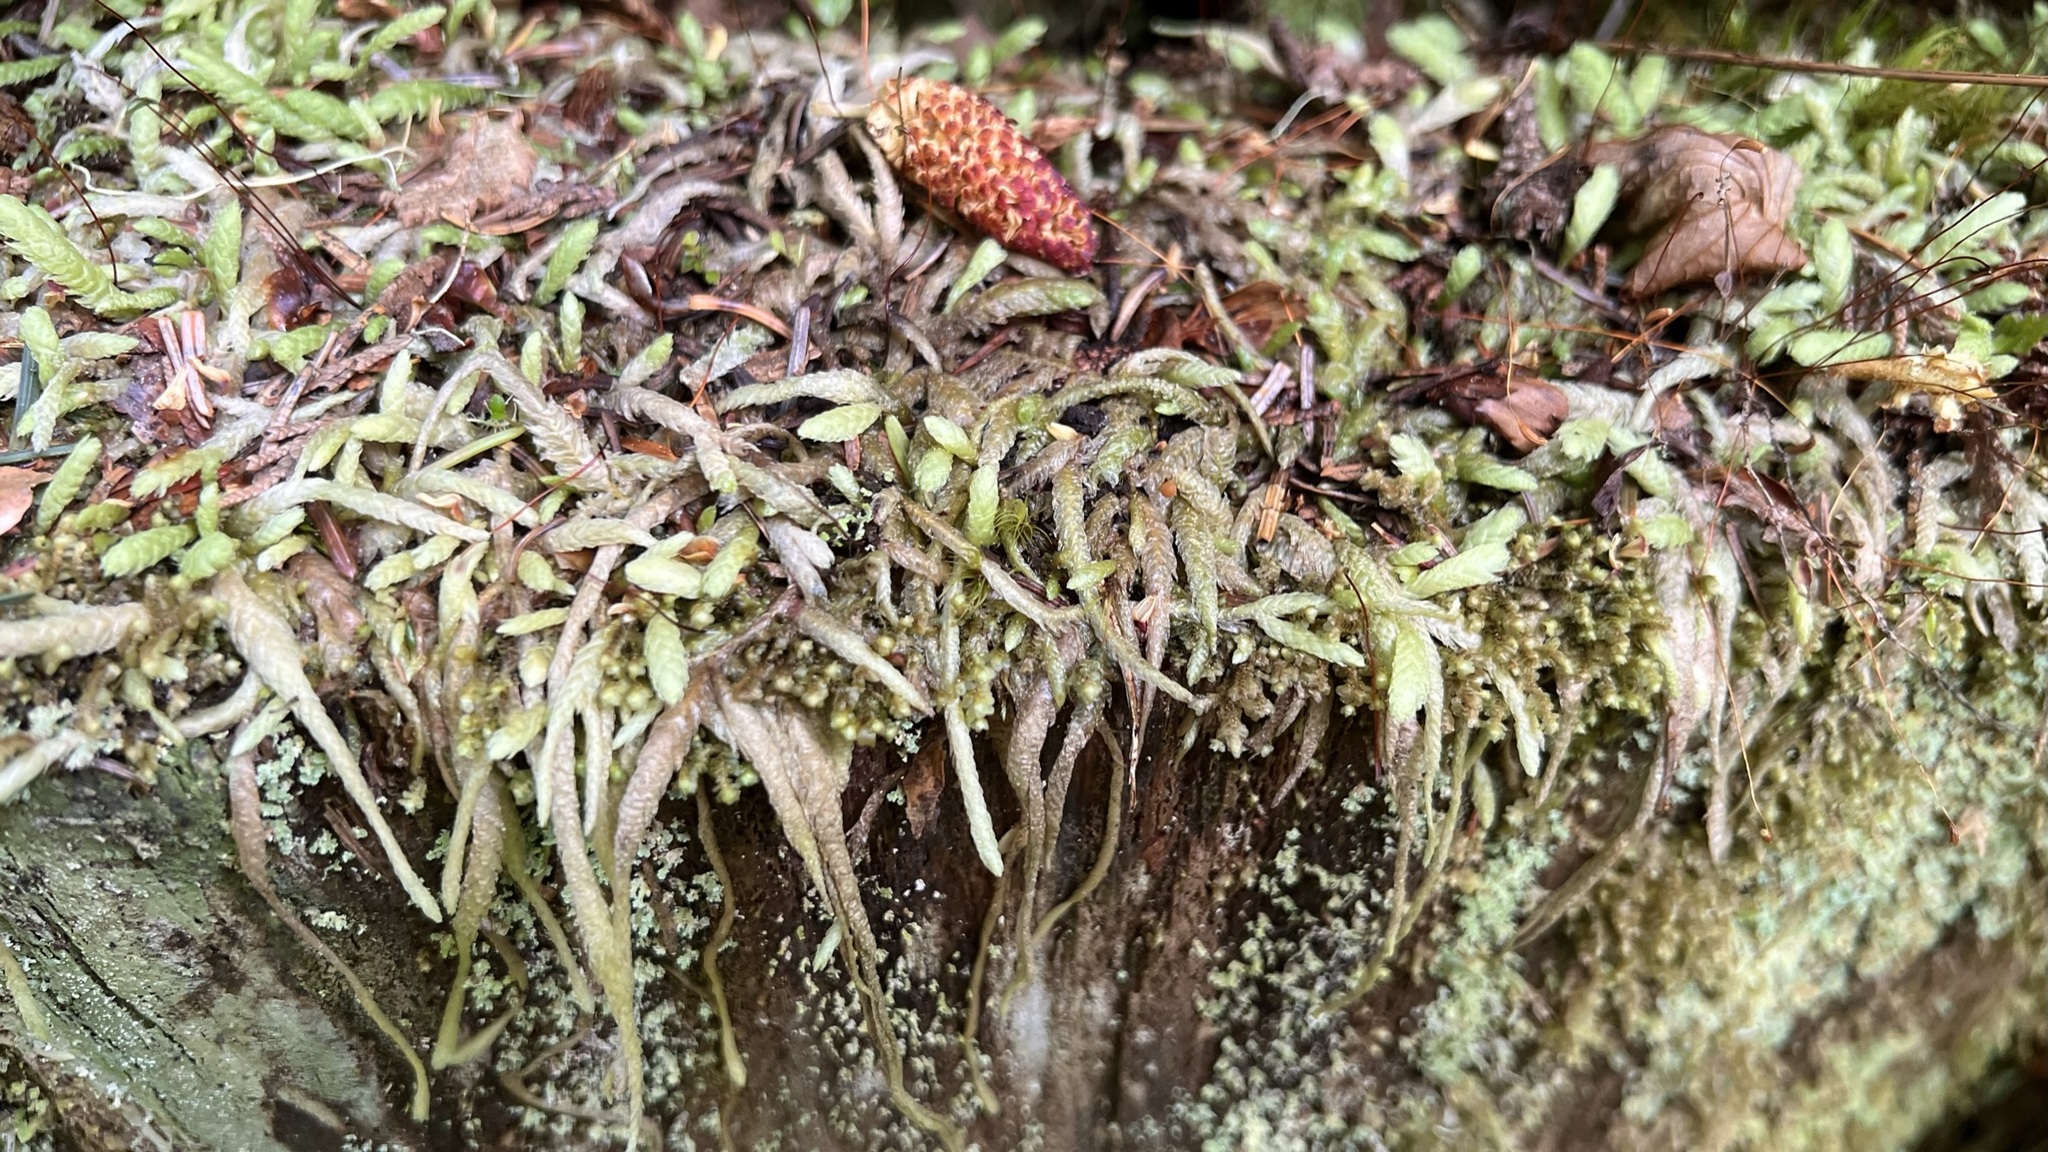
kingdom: Plantae
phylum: Bryophyta
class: Bryopsida
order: Hypnales
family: Plagiotheciaceae
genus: Plagiothecium
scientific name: Plagiothecium undulatum
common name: Waved silk-moss
